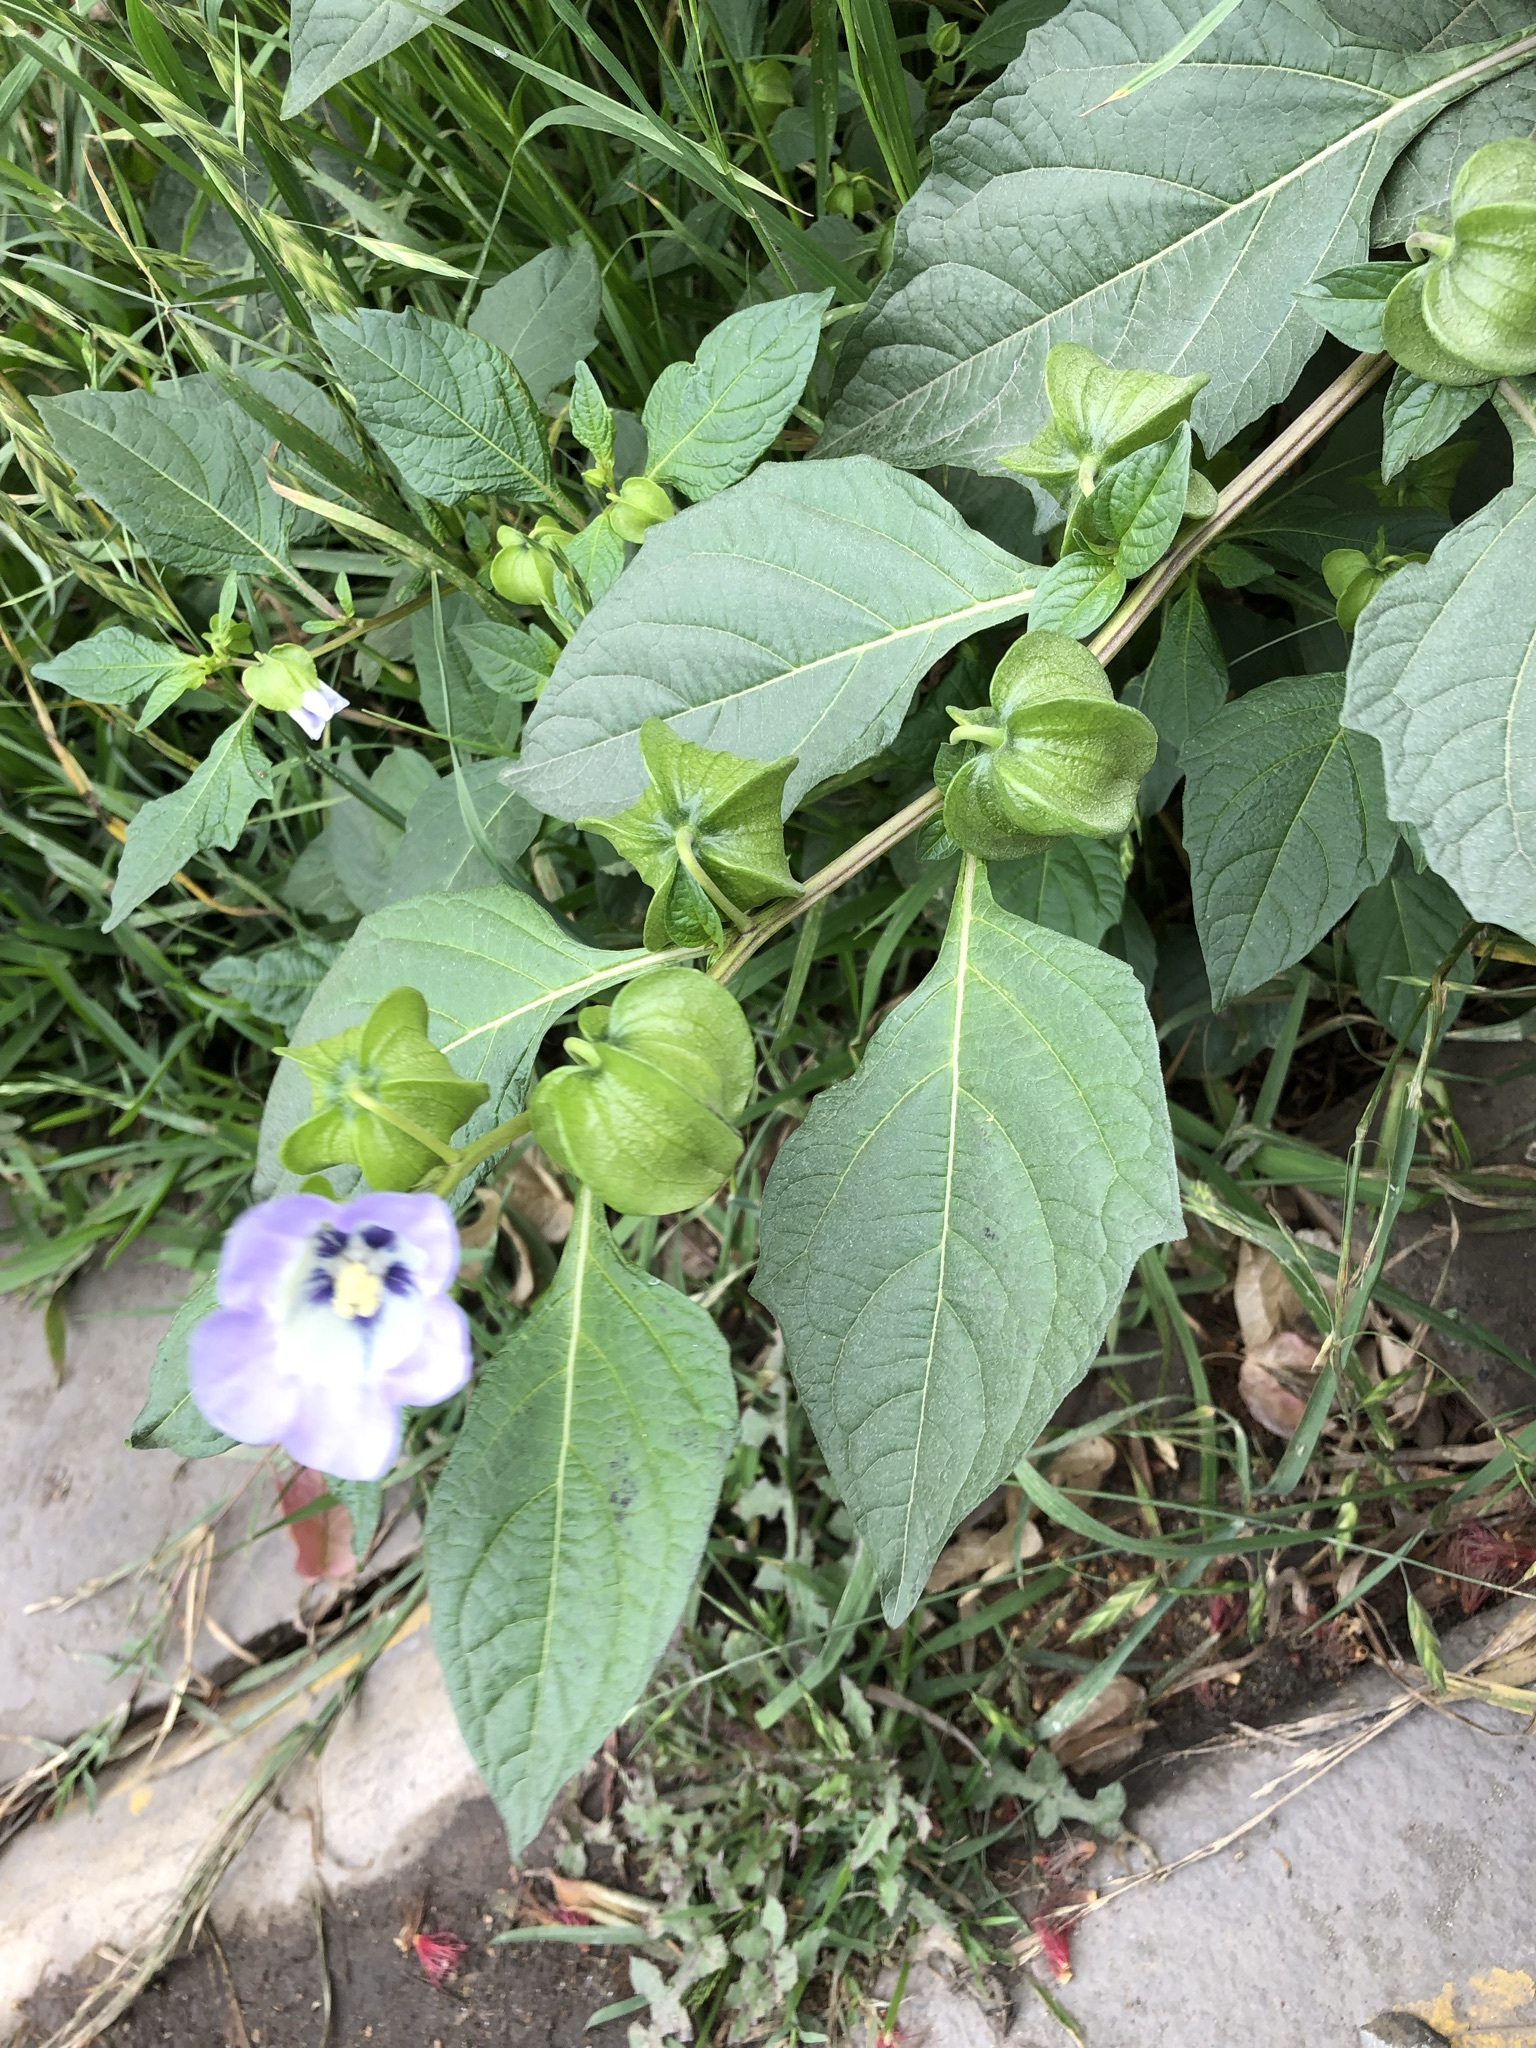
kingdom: Plantae
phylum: Tracheophyta
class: Magnoliopsida
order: Solanales
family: Solanaceae
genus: Nicandra
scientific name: Nicandra physalodes
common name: Apple-of-peru
